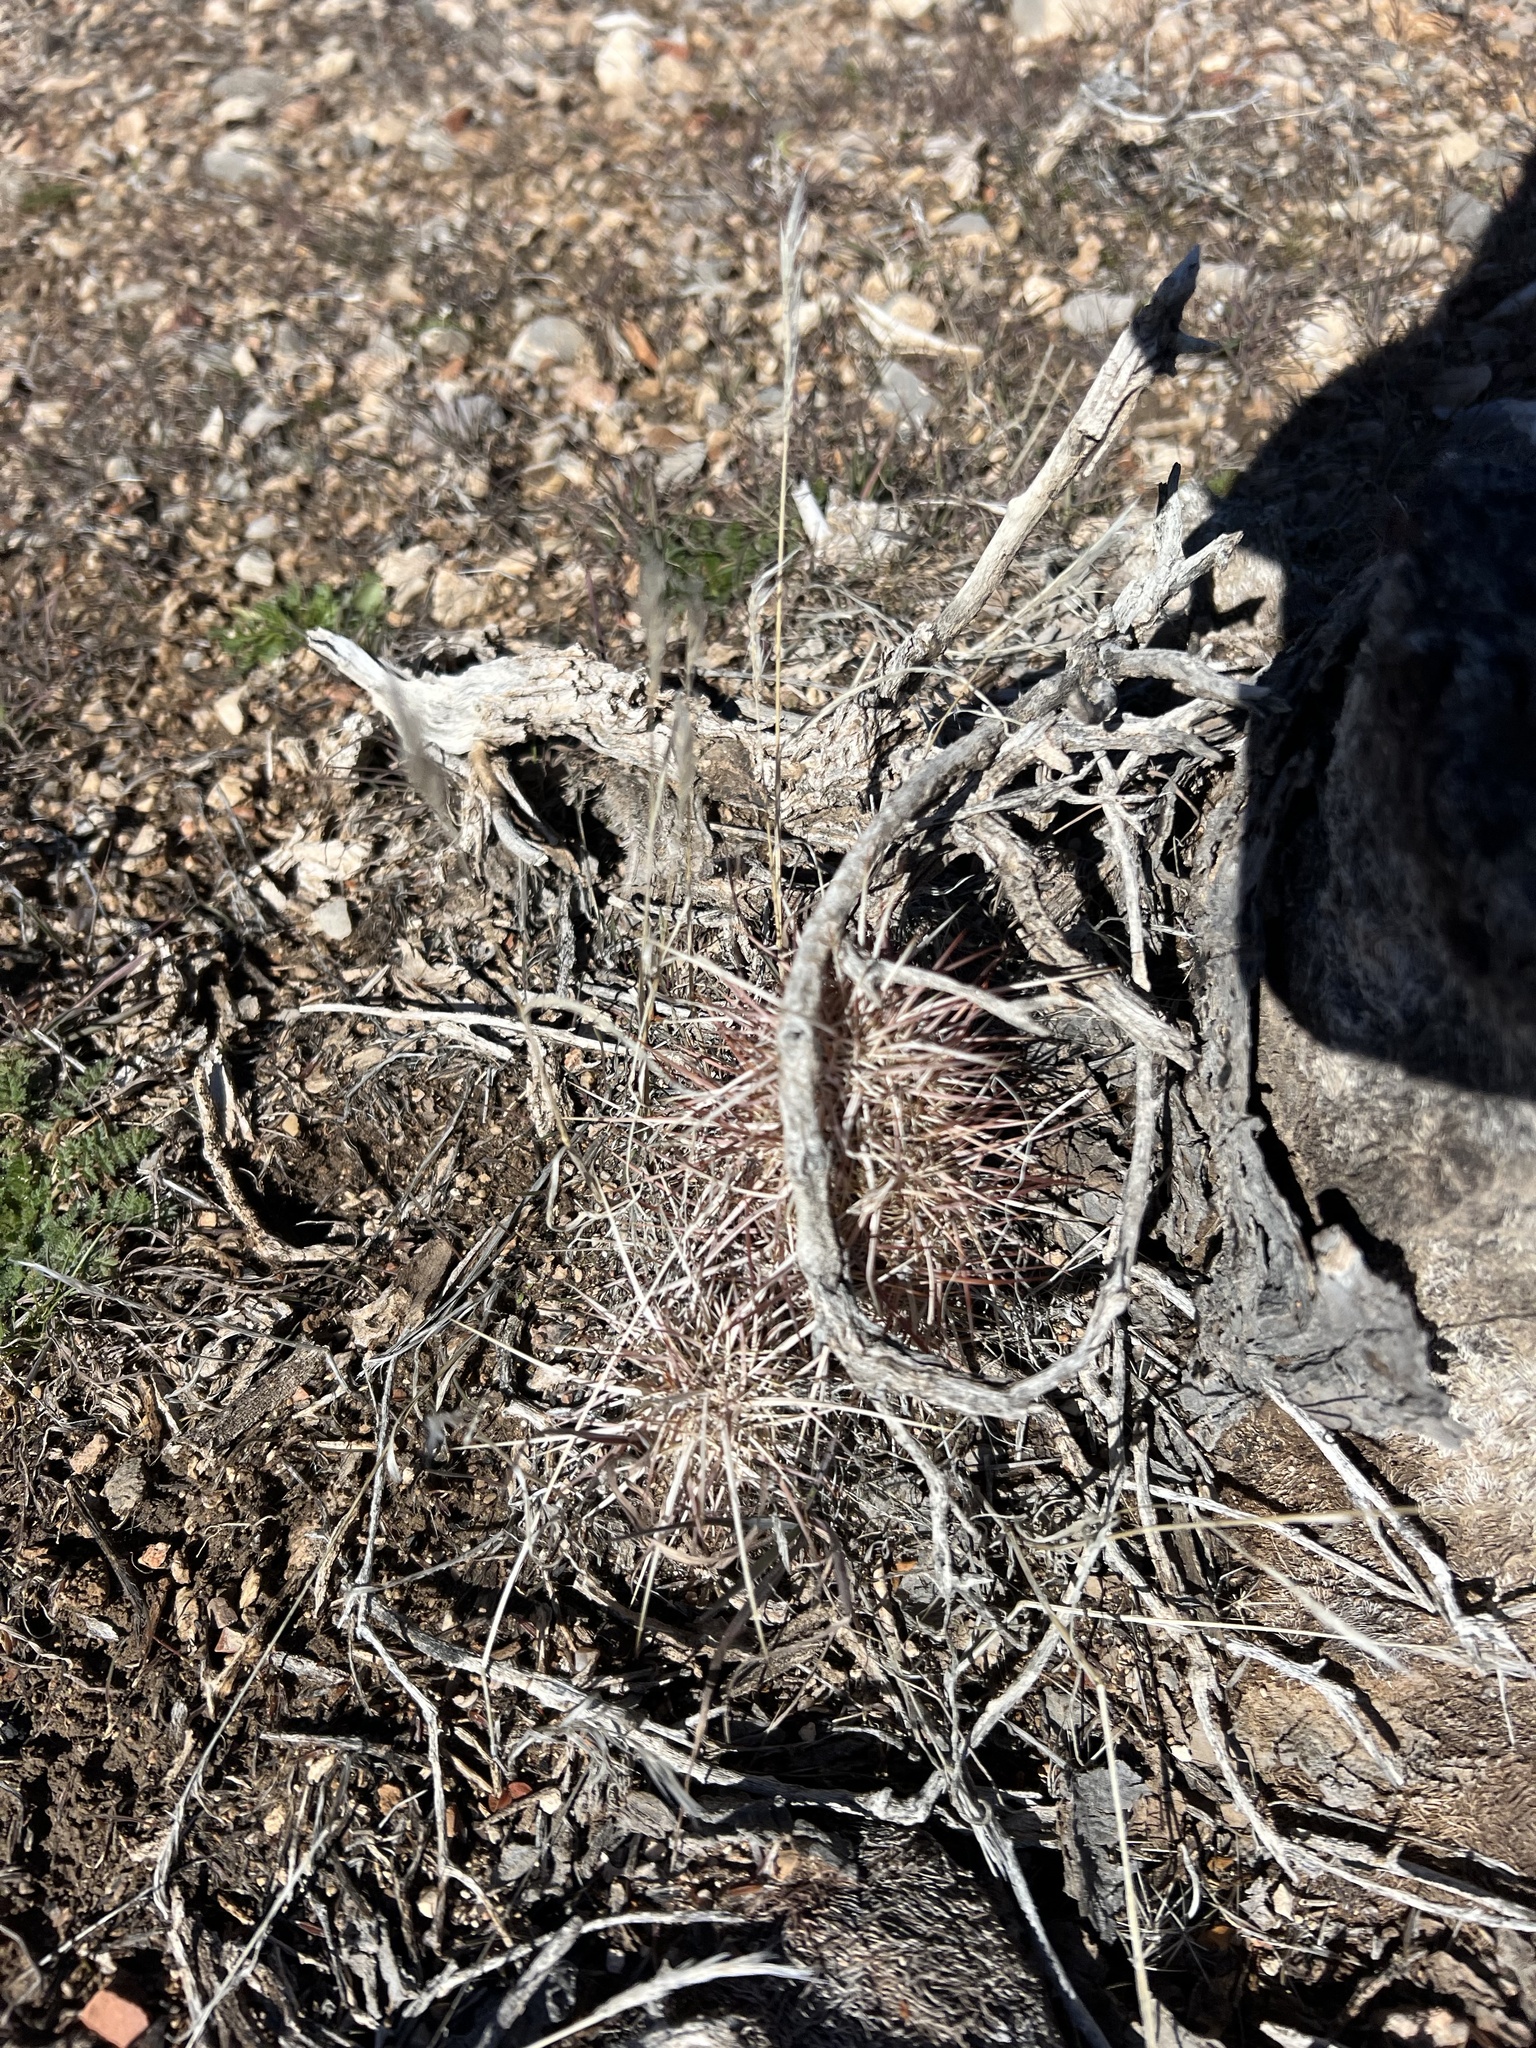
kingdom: Plantae
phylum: Tracheophyta
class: Magnoliopsida
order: Caryophyllales
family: Cactaceae
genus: Echinocereus
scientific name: Echinocereus engelmannii
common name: Engelmann's hedgehog cactus
